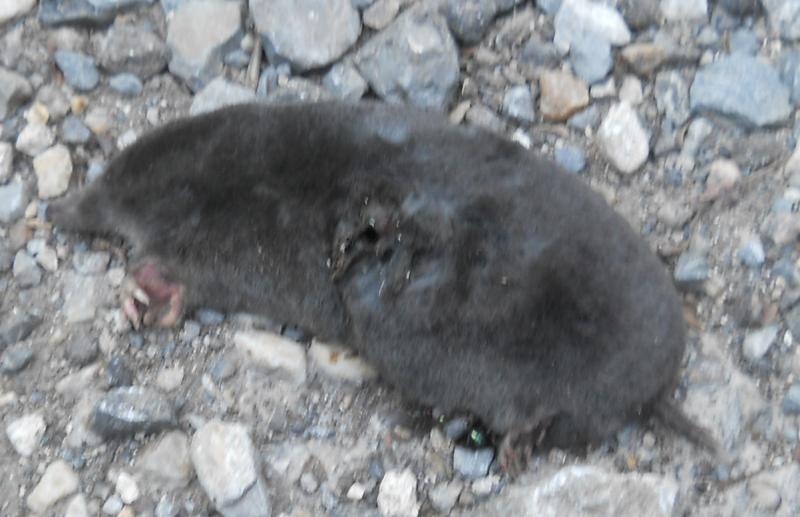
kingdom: Animalia
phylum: Chordata
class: Mammalia
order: Soricomorpha
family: Talpidae
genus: Talpa
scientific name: Talpa europaea
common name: European mole
